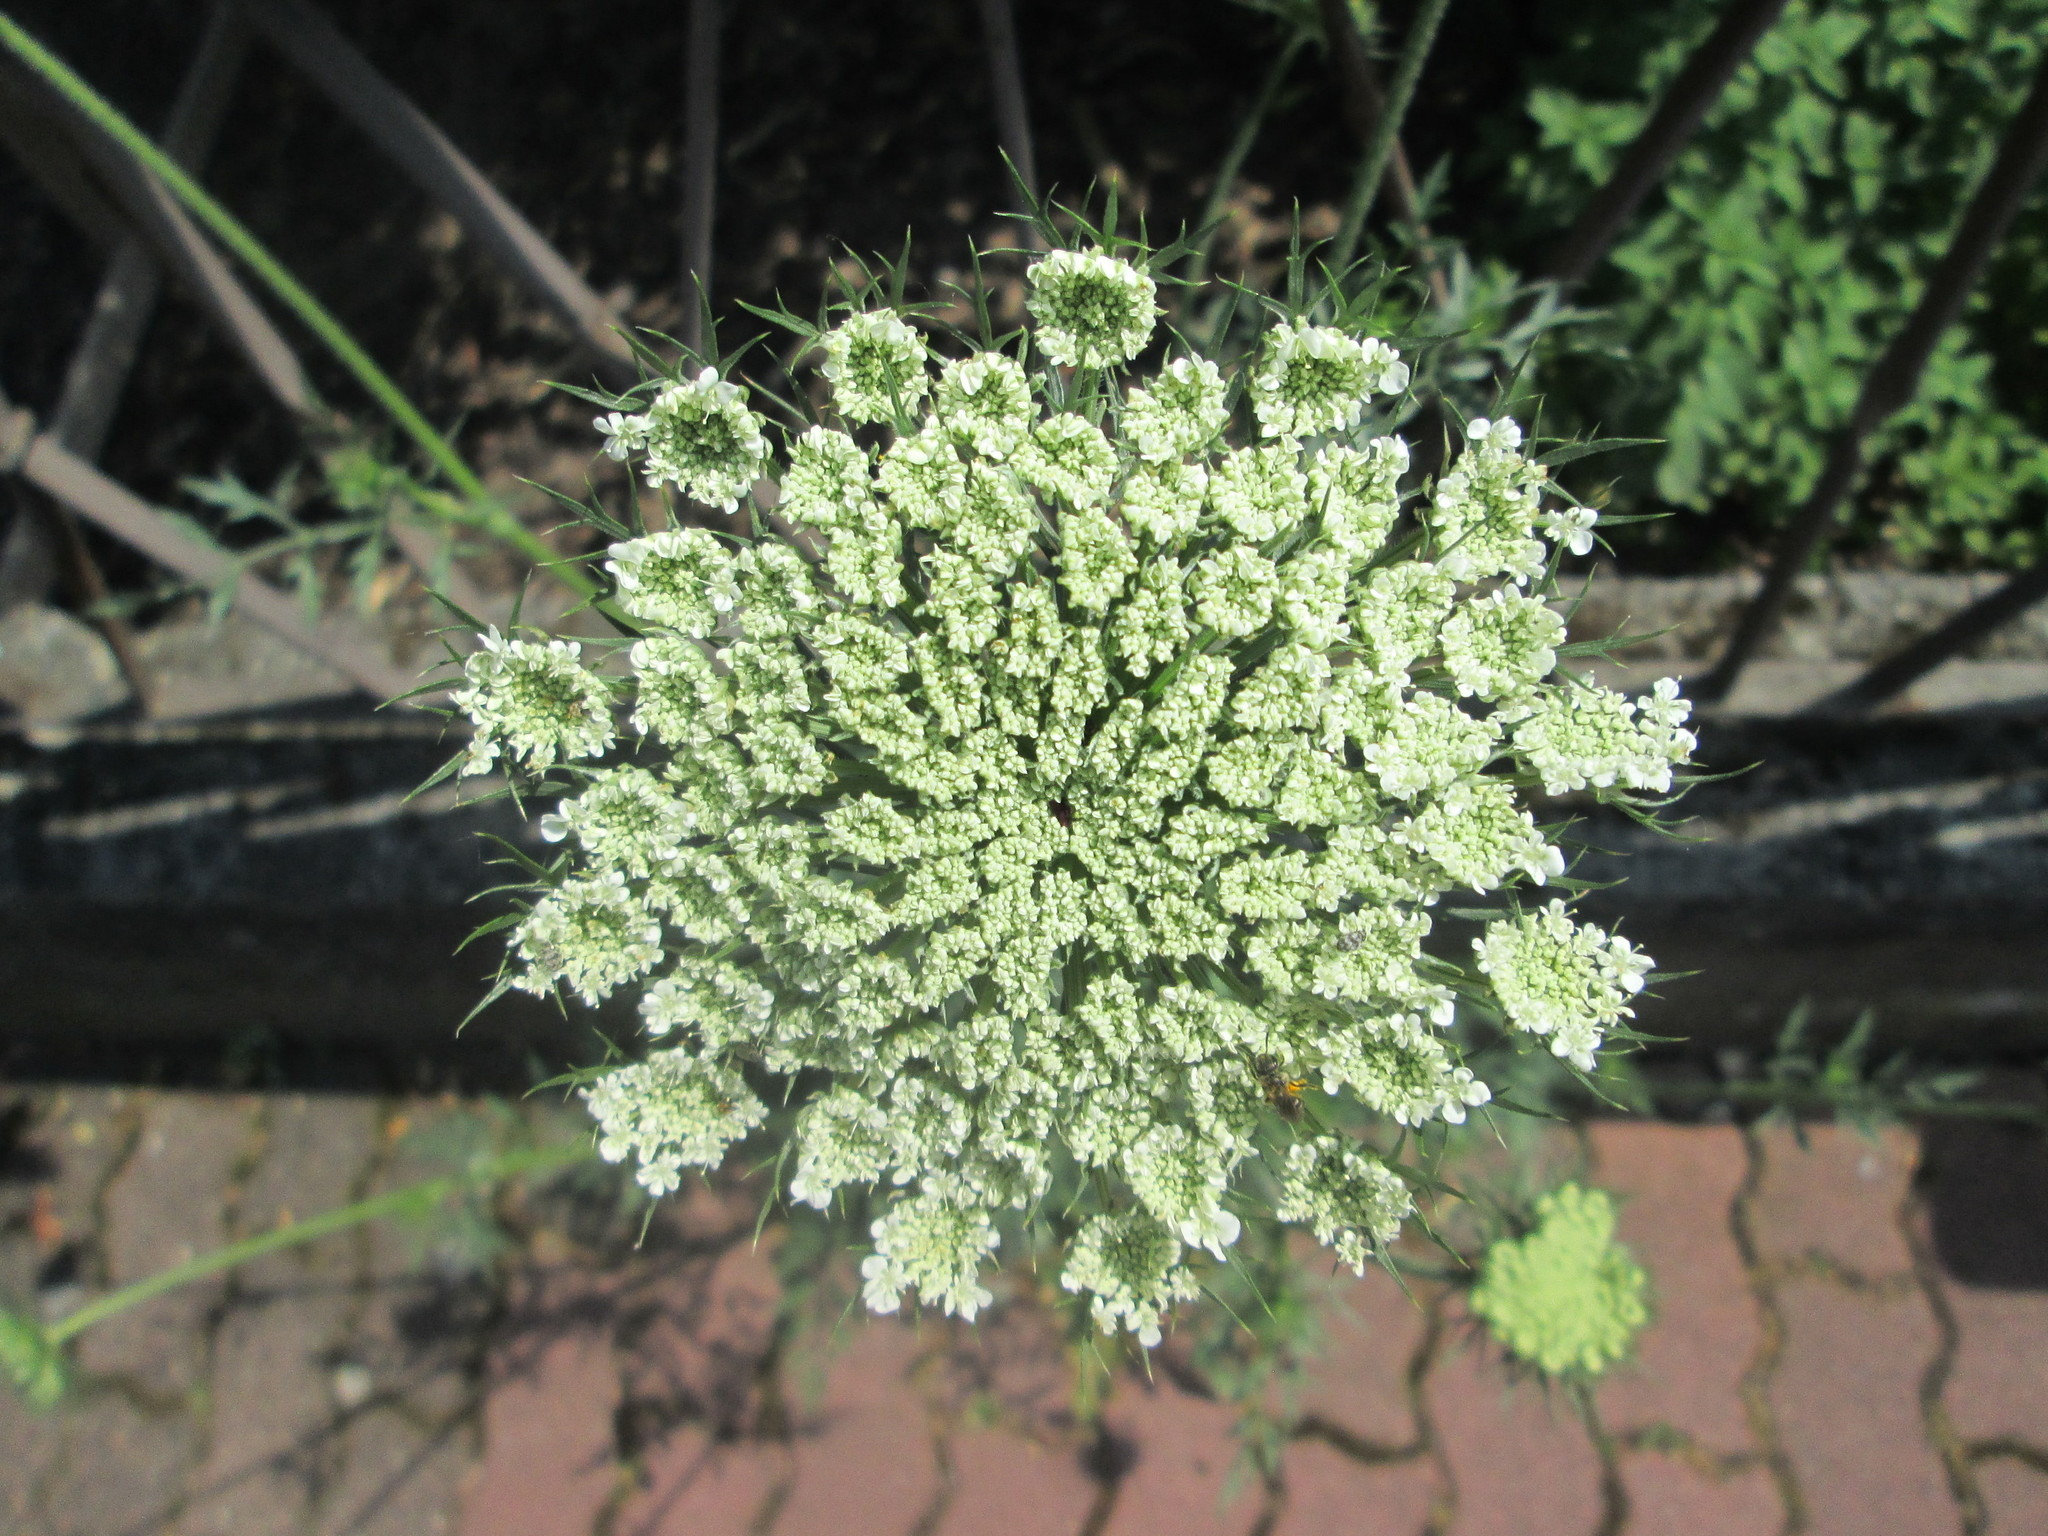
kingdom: Plantae
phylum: Tracheophyta
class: Magnoliopsida
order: Apiales
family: Apiaceae
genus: Daucus
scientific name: Daucus carota
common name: Wild carrot
